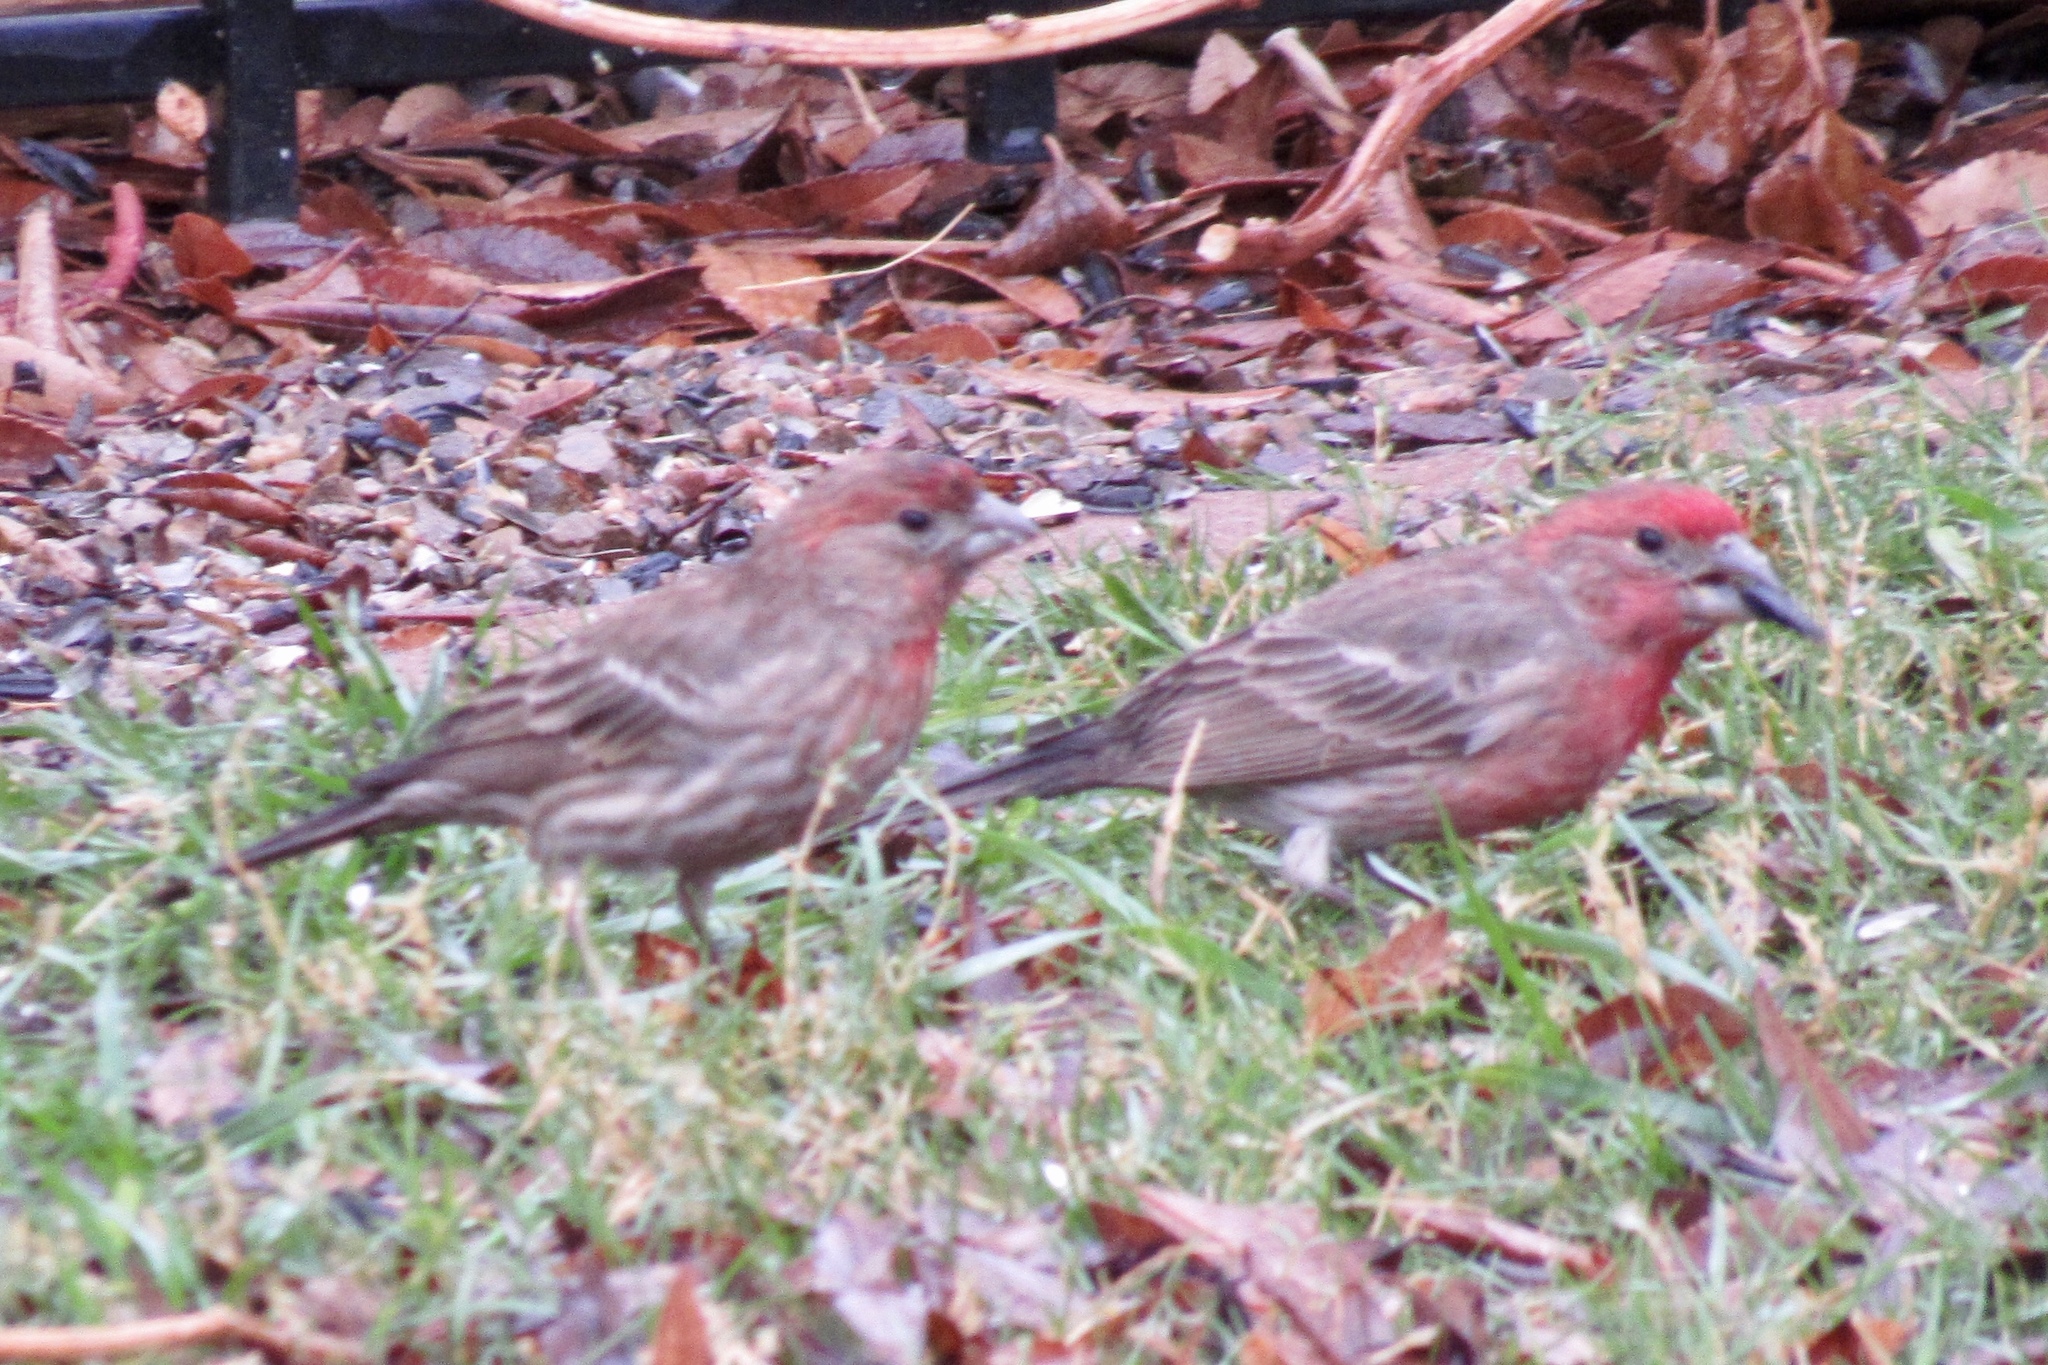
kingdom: Animalia
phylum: Chordata
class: Aves
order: Passeriformes
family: Fringillidae
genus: Haemorhous
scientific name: Haemorhous mexicanus
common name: House finch
